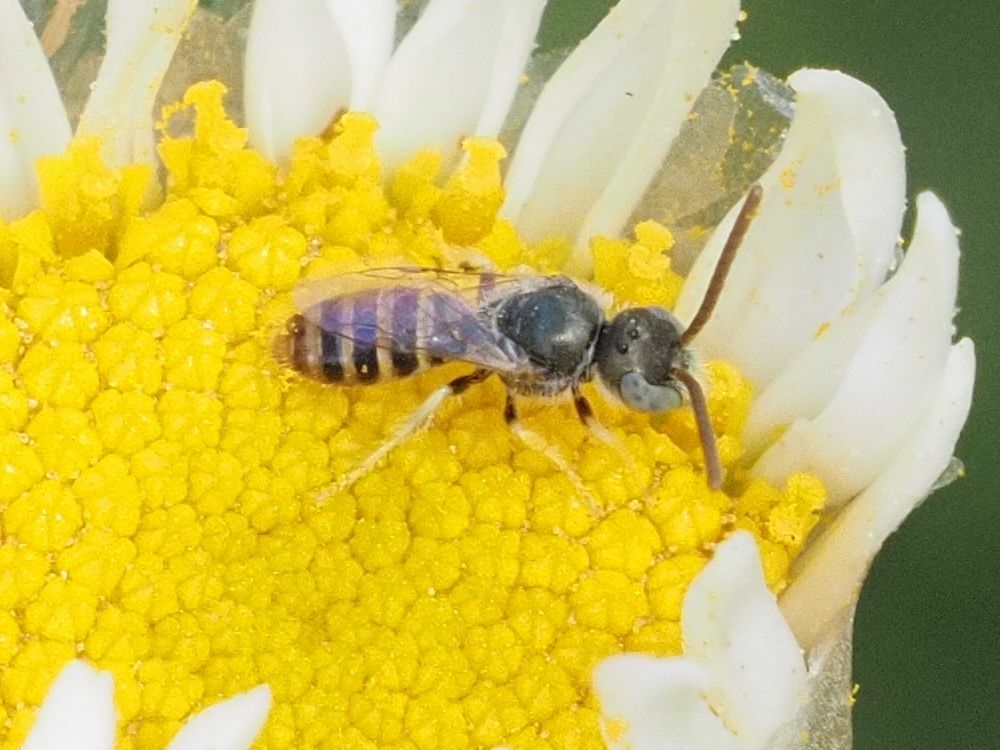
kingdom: Animalia
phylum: Arthropoda
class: Insecta
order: Hymenoptera
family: Halictidae
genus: Nomioides
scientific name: Nomioides deceptor
